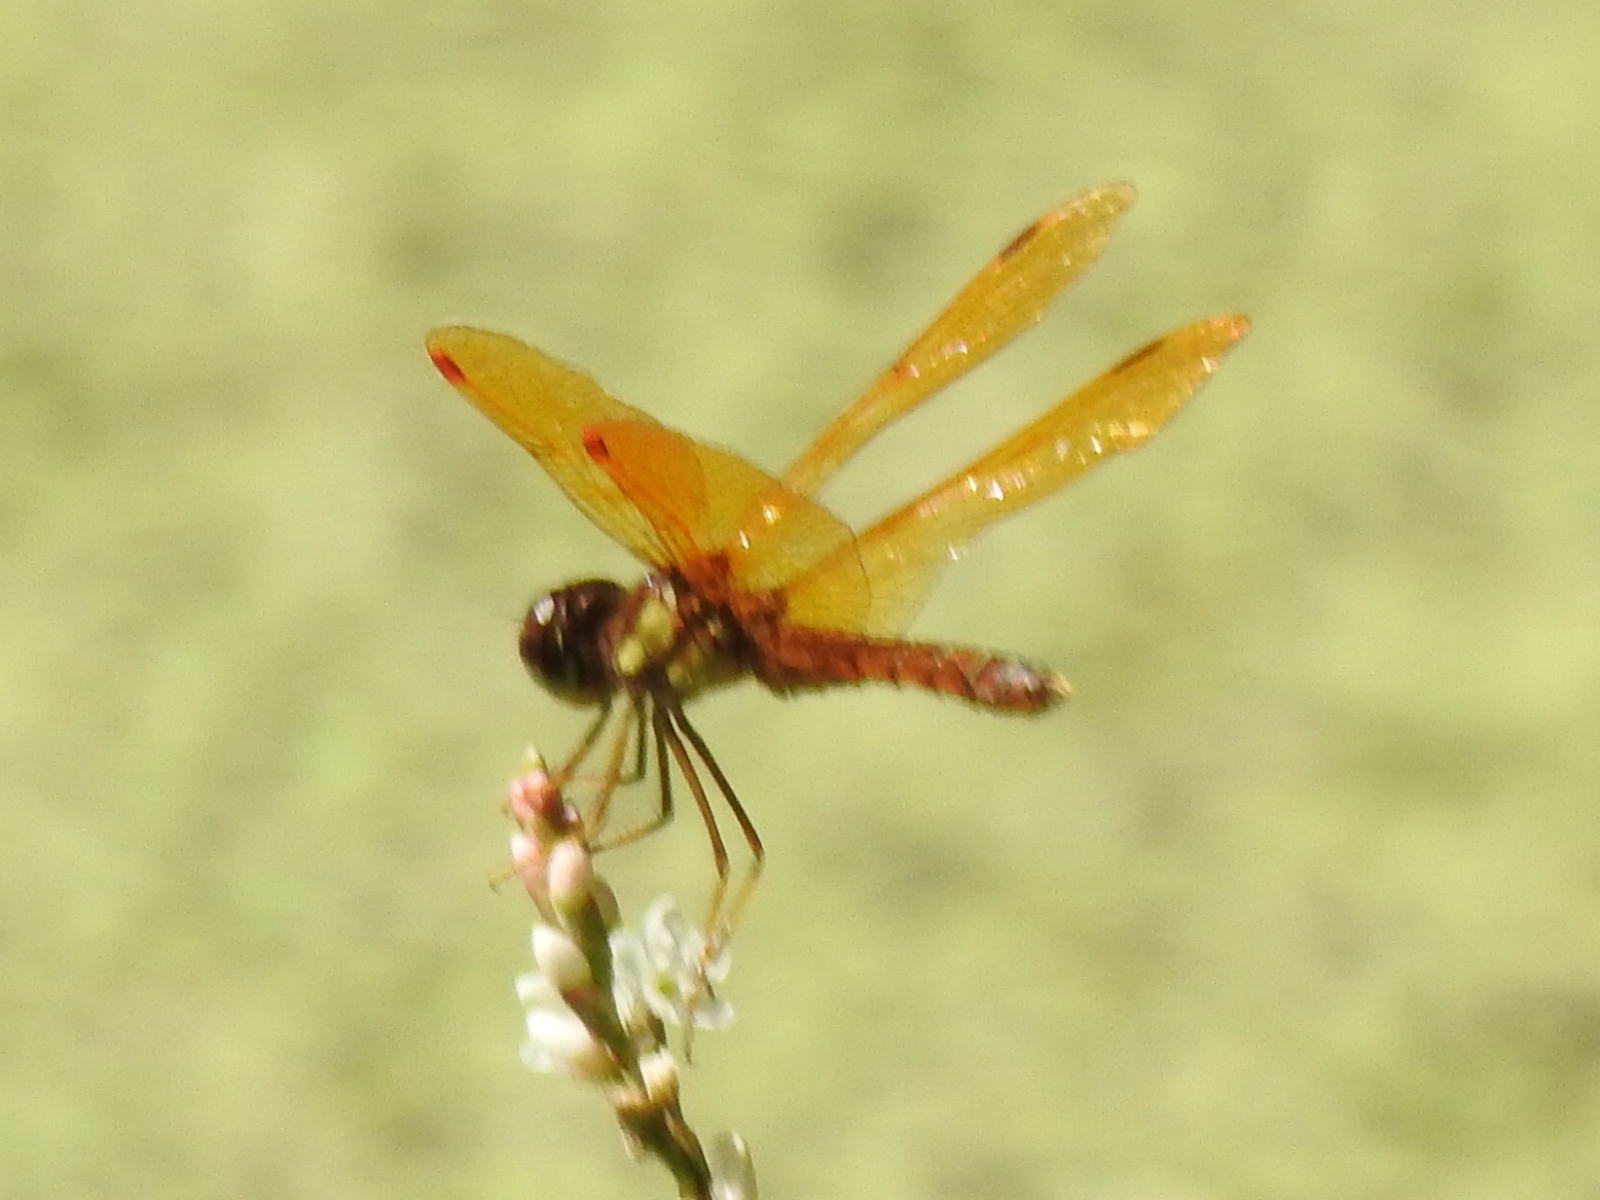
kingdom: Animalia
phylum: Arthropoda
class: Insecta
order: Odonata
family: Libellulidae
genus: Perithemis
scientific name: Perithemis tenera
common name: Eastern amberwing
